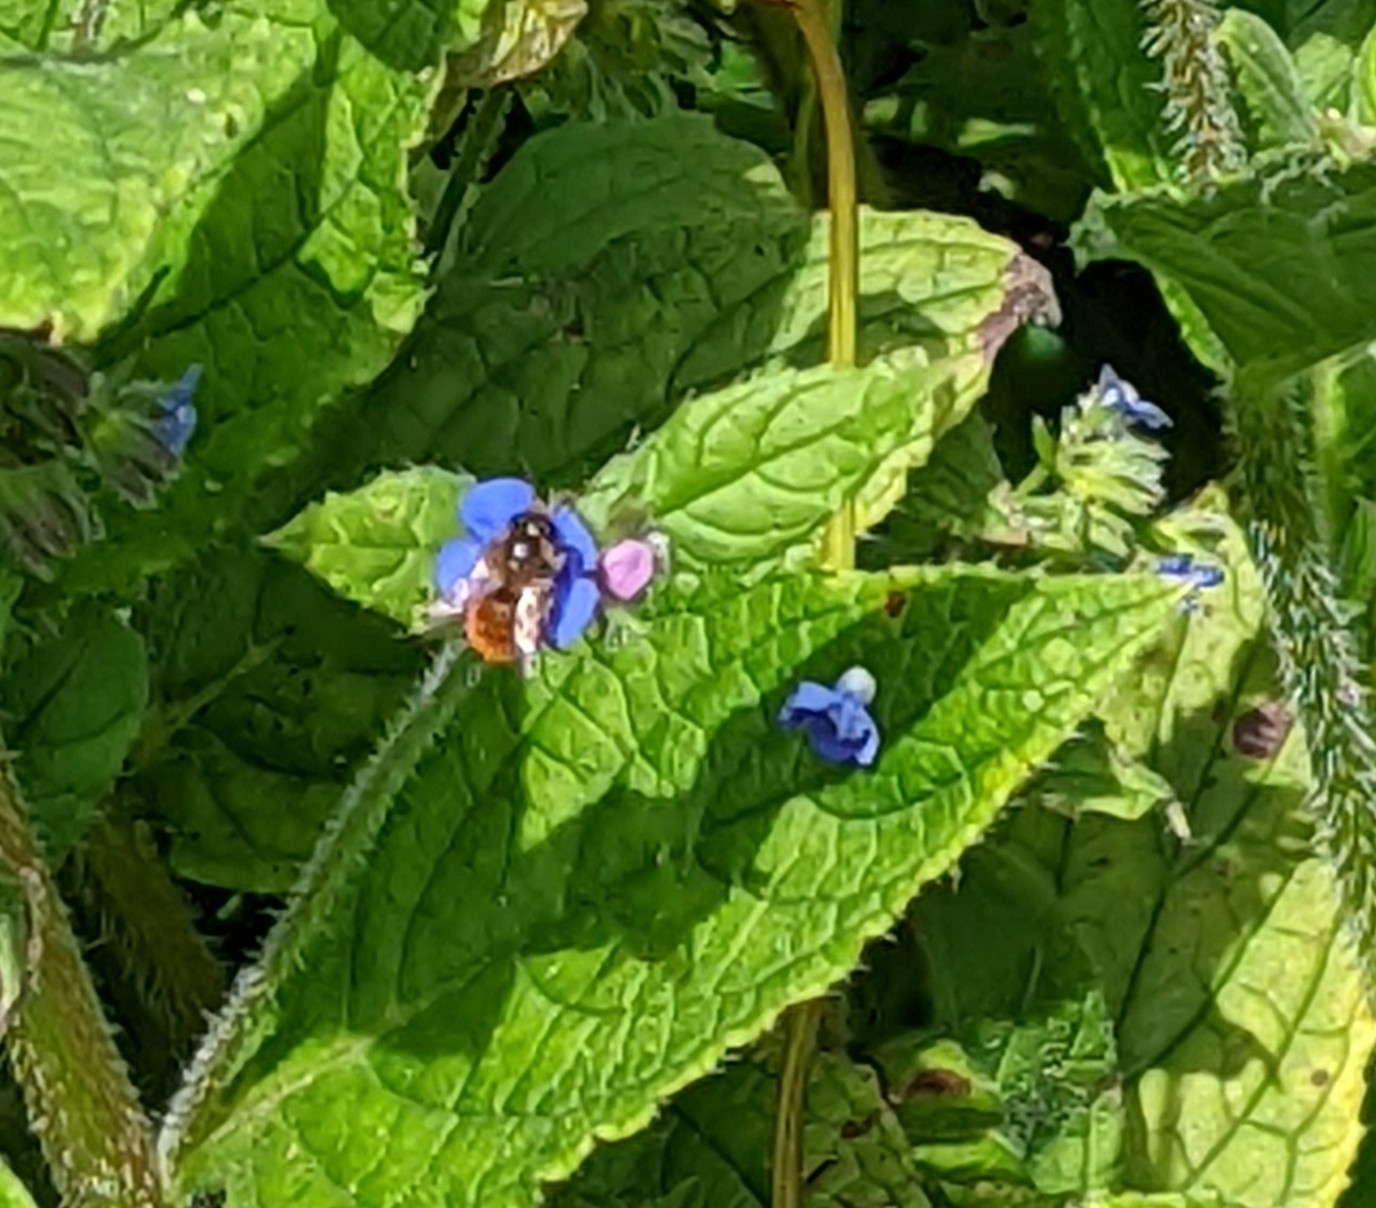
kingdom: Animalia
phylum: Arthropoda
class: Insecta
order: Hymenoptera
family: Megachilidae
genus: Osmia
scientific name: Osmia bicornis
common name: Red mason bee
